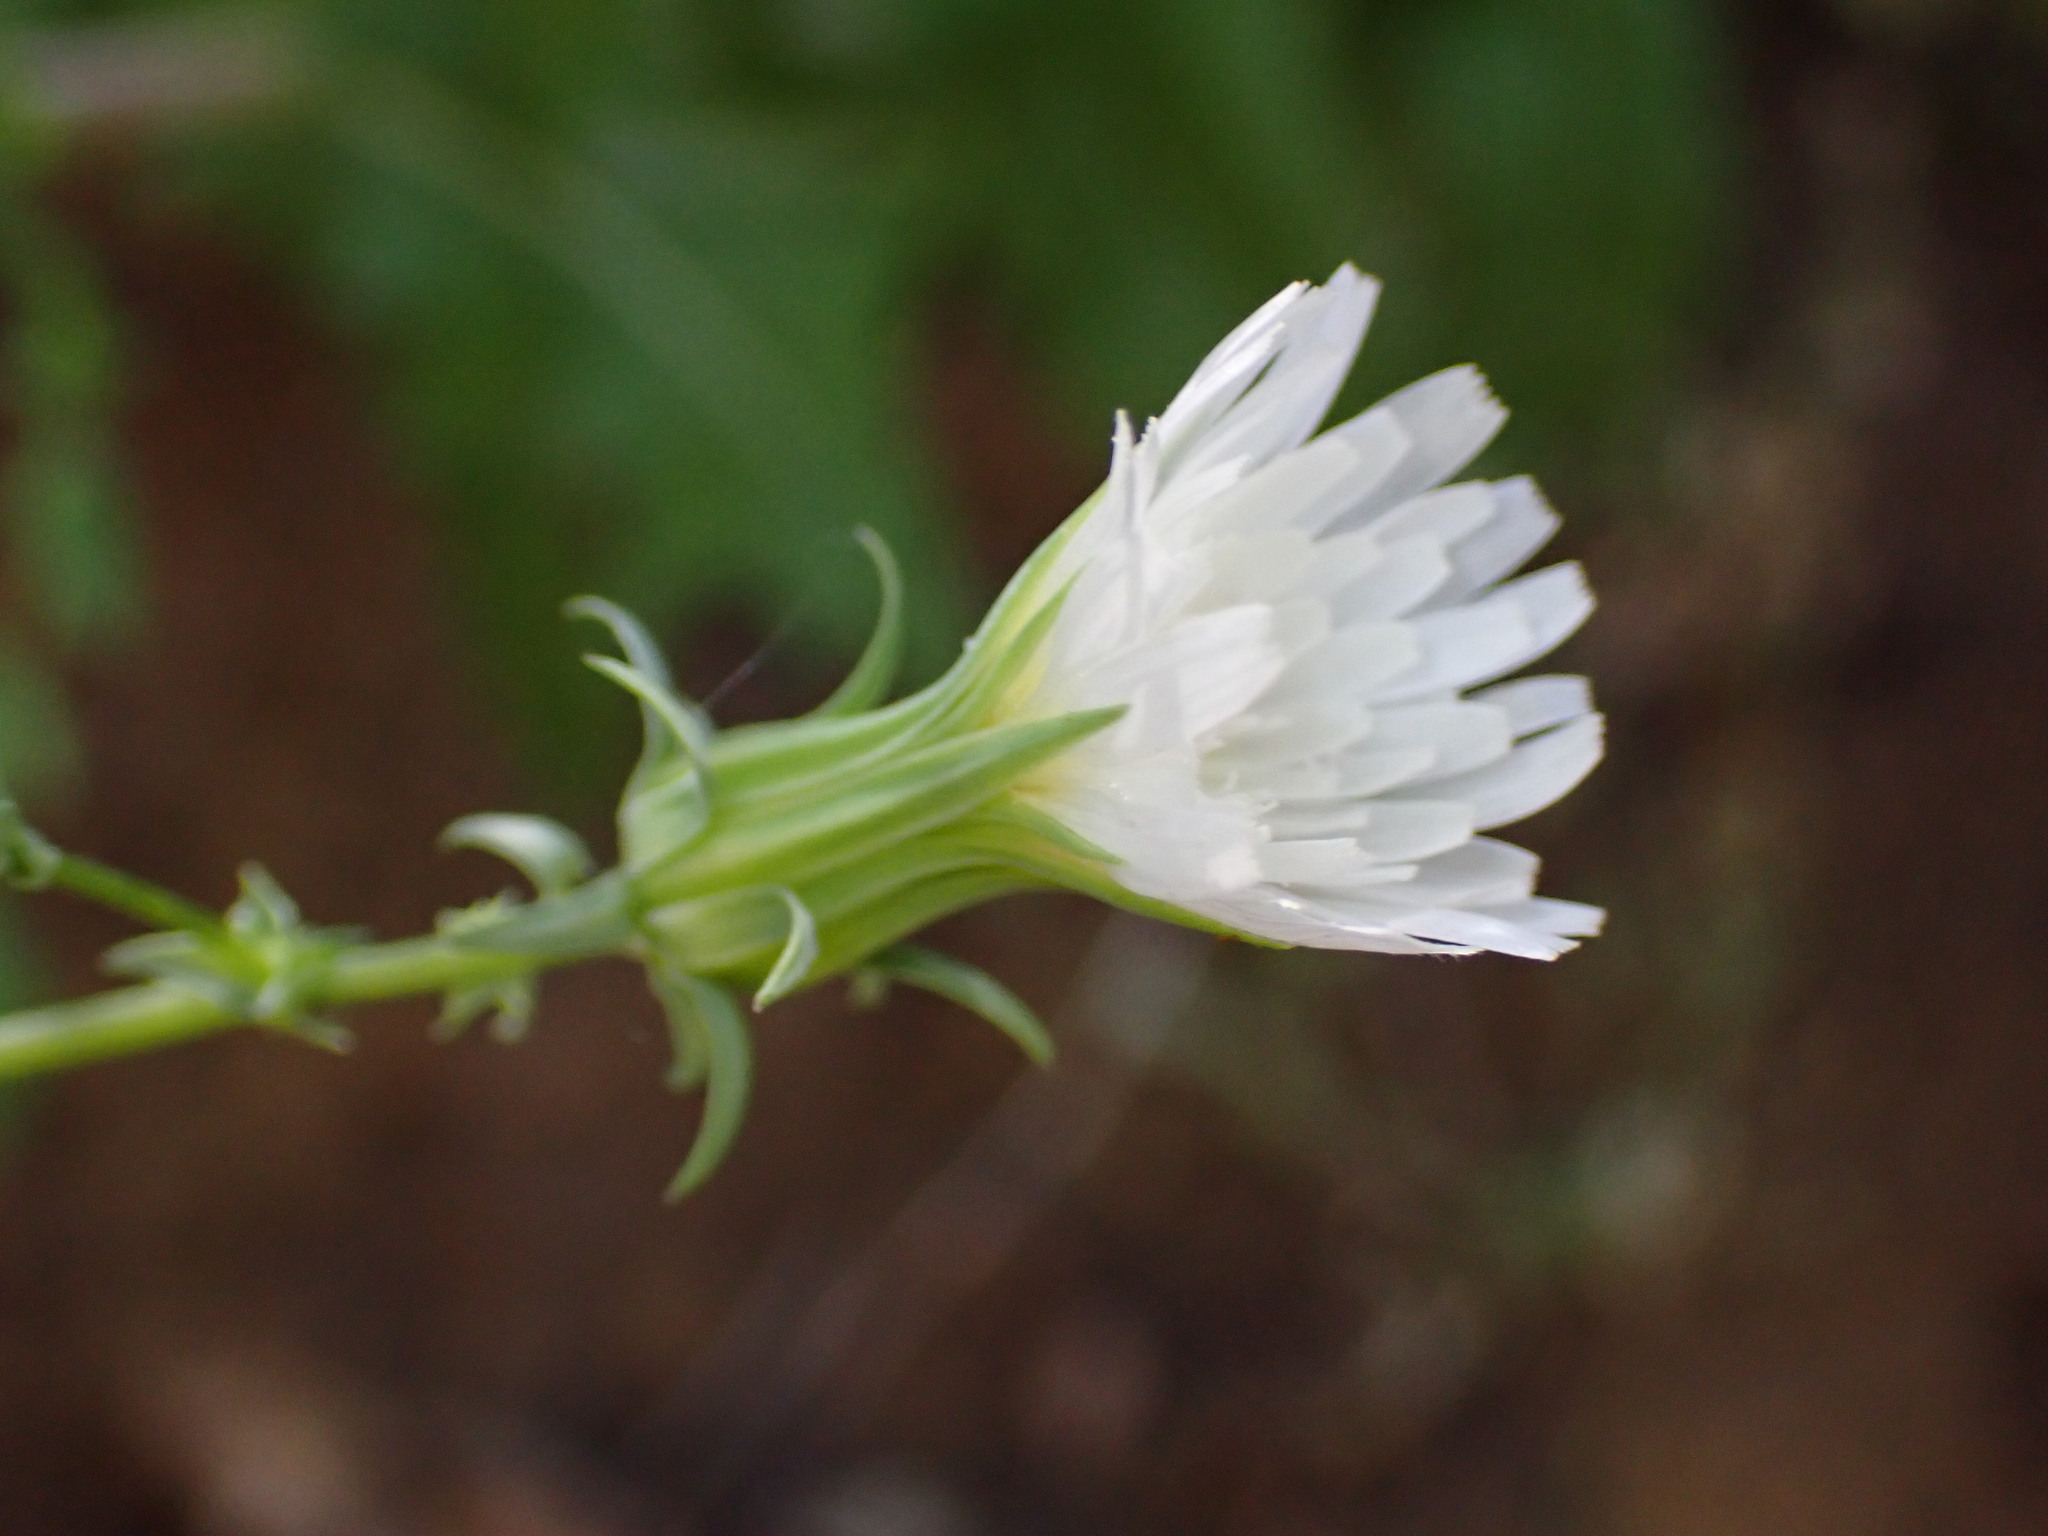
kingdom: Plantae
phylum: Tracheophyta
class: Magnoliopsida
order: Asterales
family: Asteraceae
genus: Rafinesquia
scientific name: Rafinesquia californica
